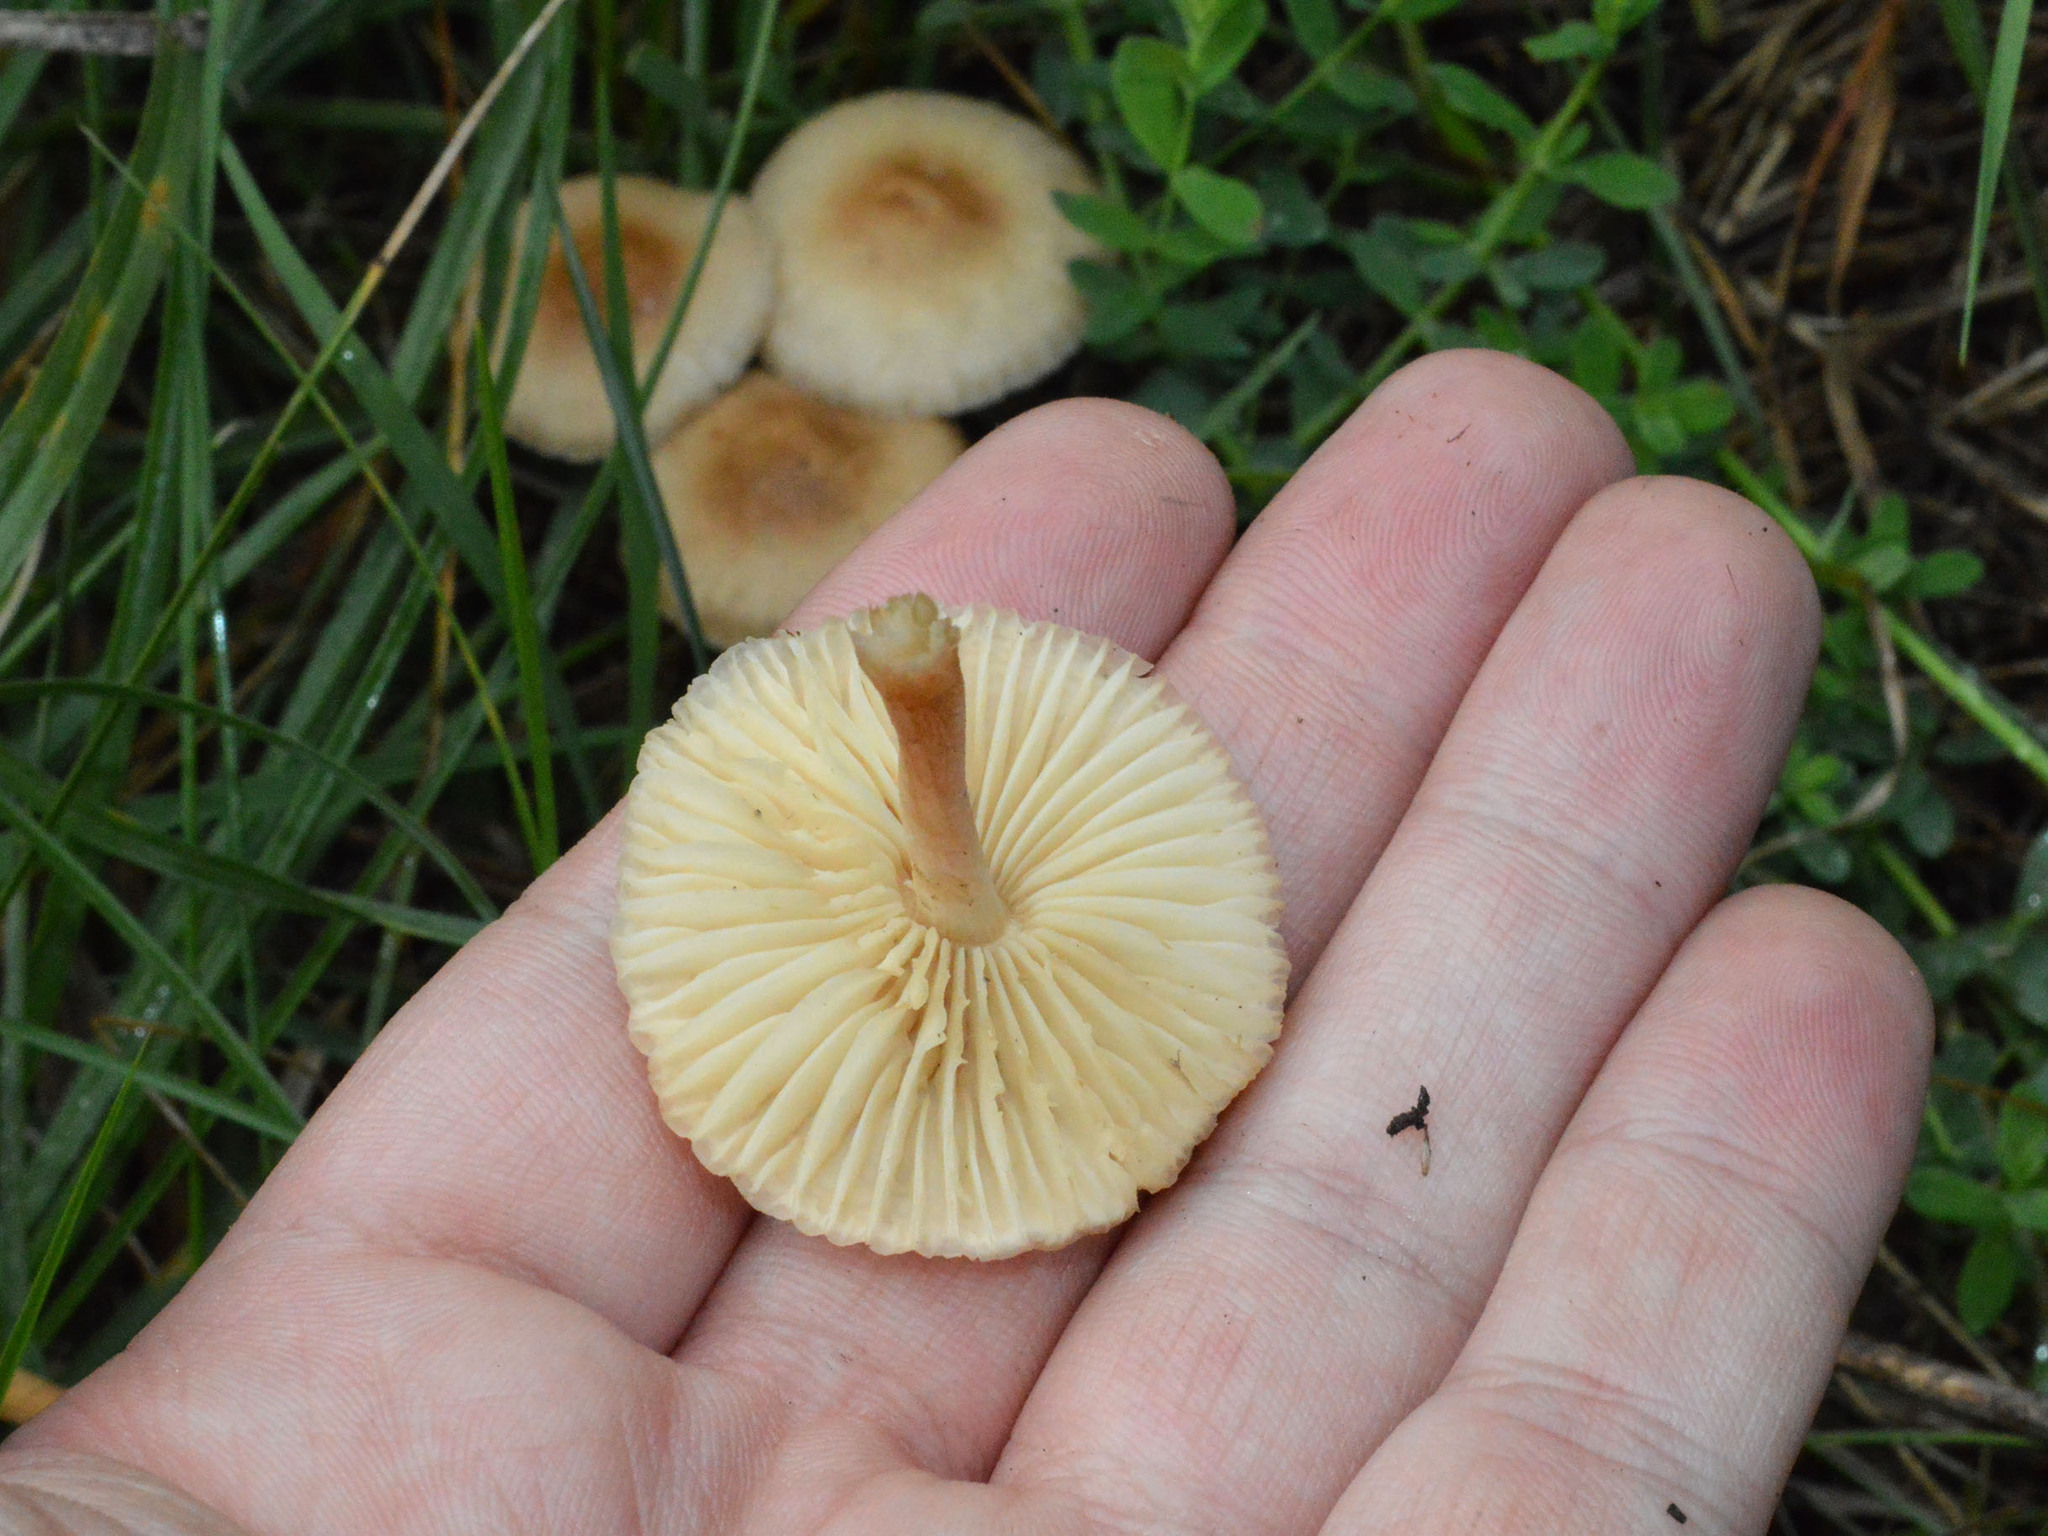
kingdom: Fungi
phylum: Basidiomycota
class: Agaricomycetes
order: Agaricales
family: Marasmiaceae
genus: Marasmius
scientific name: Marasmius oreades
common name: Fairy ring champignon
